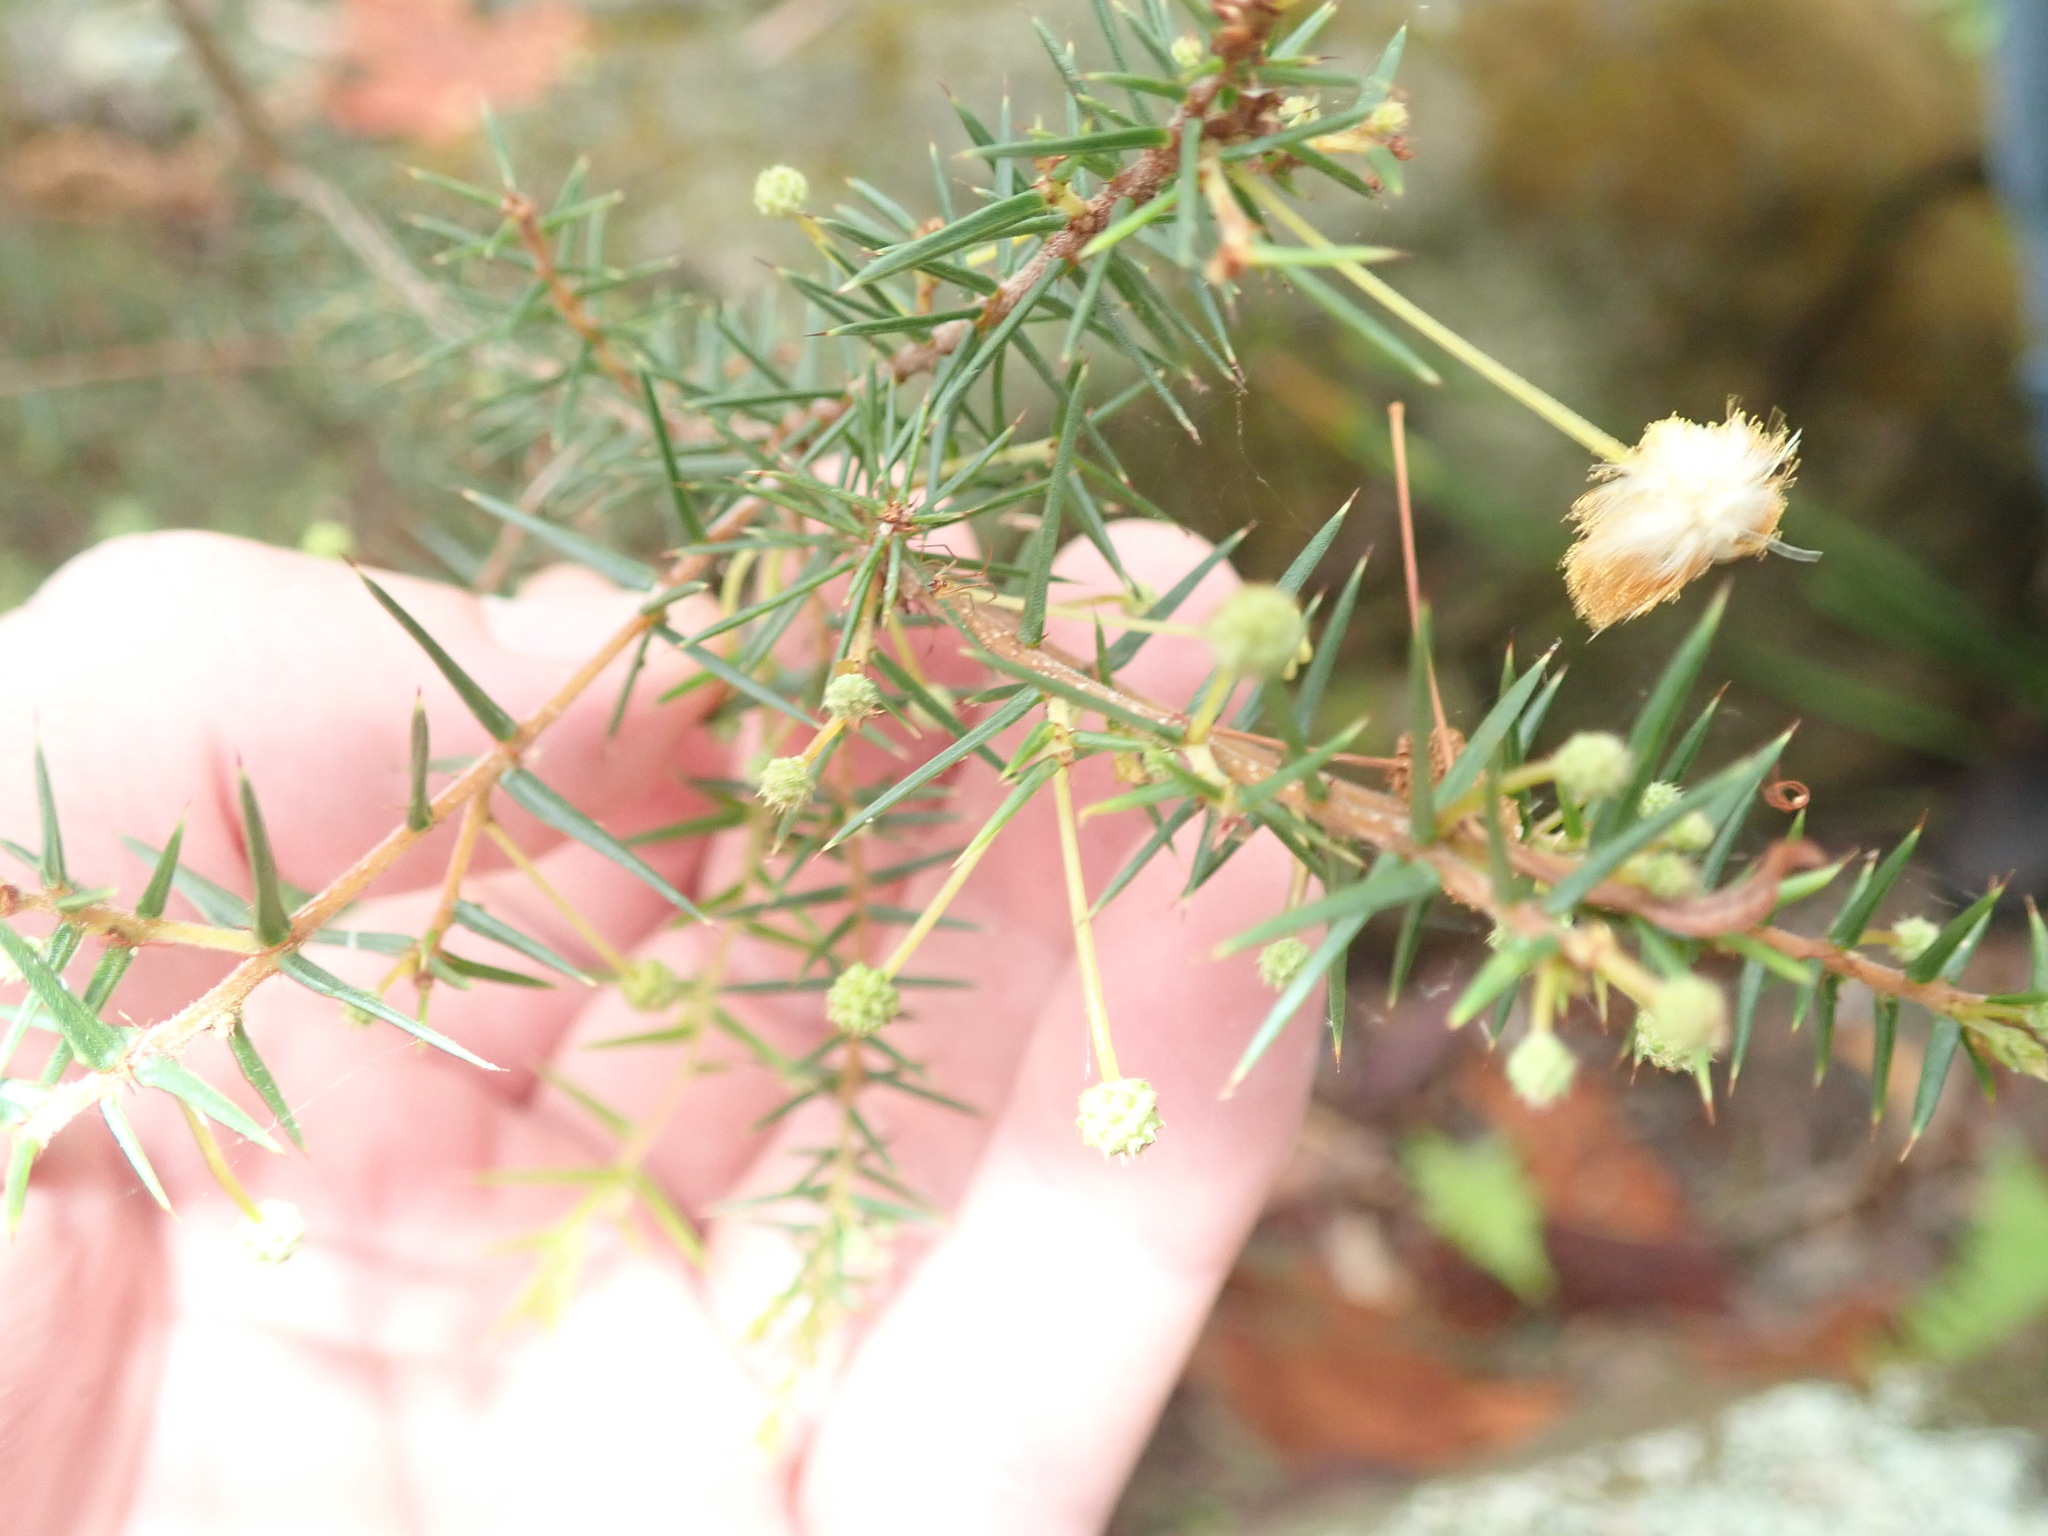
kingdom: Plantae
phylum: Tracheophyta
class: Magnoliopsida
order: Fabales
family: Fabaceae
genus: Acacia
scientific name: Acacia ulicifolia
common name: Juniper wattle
